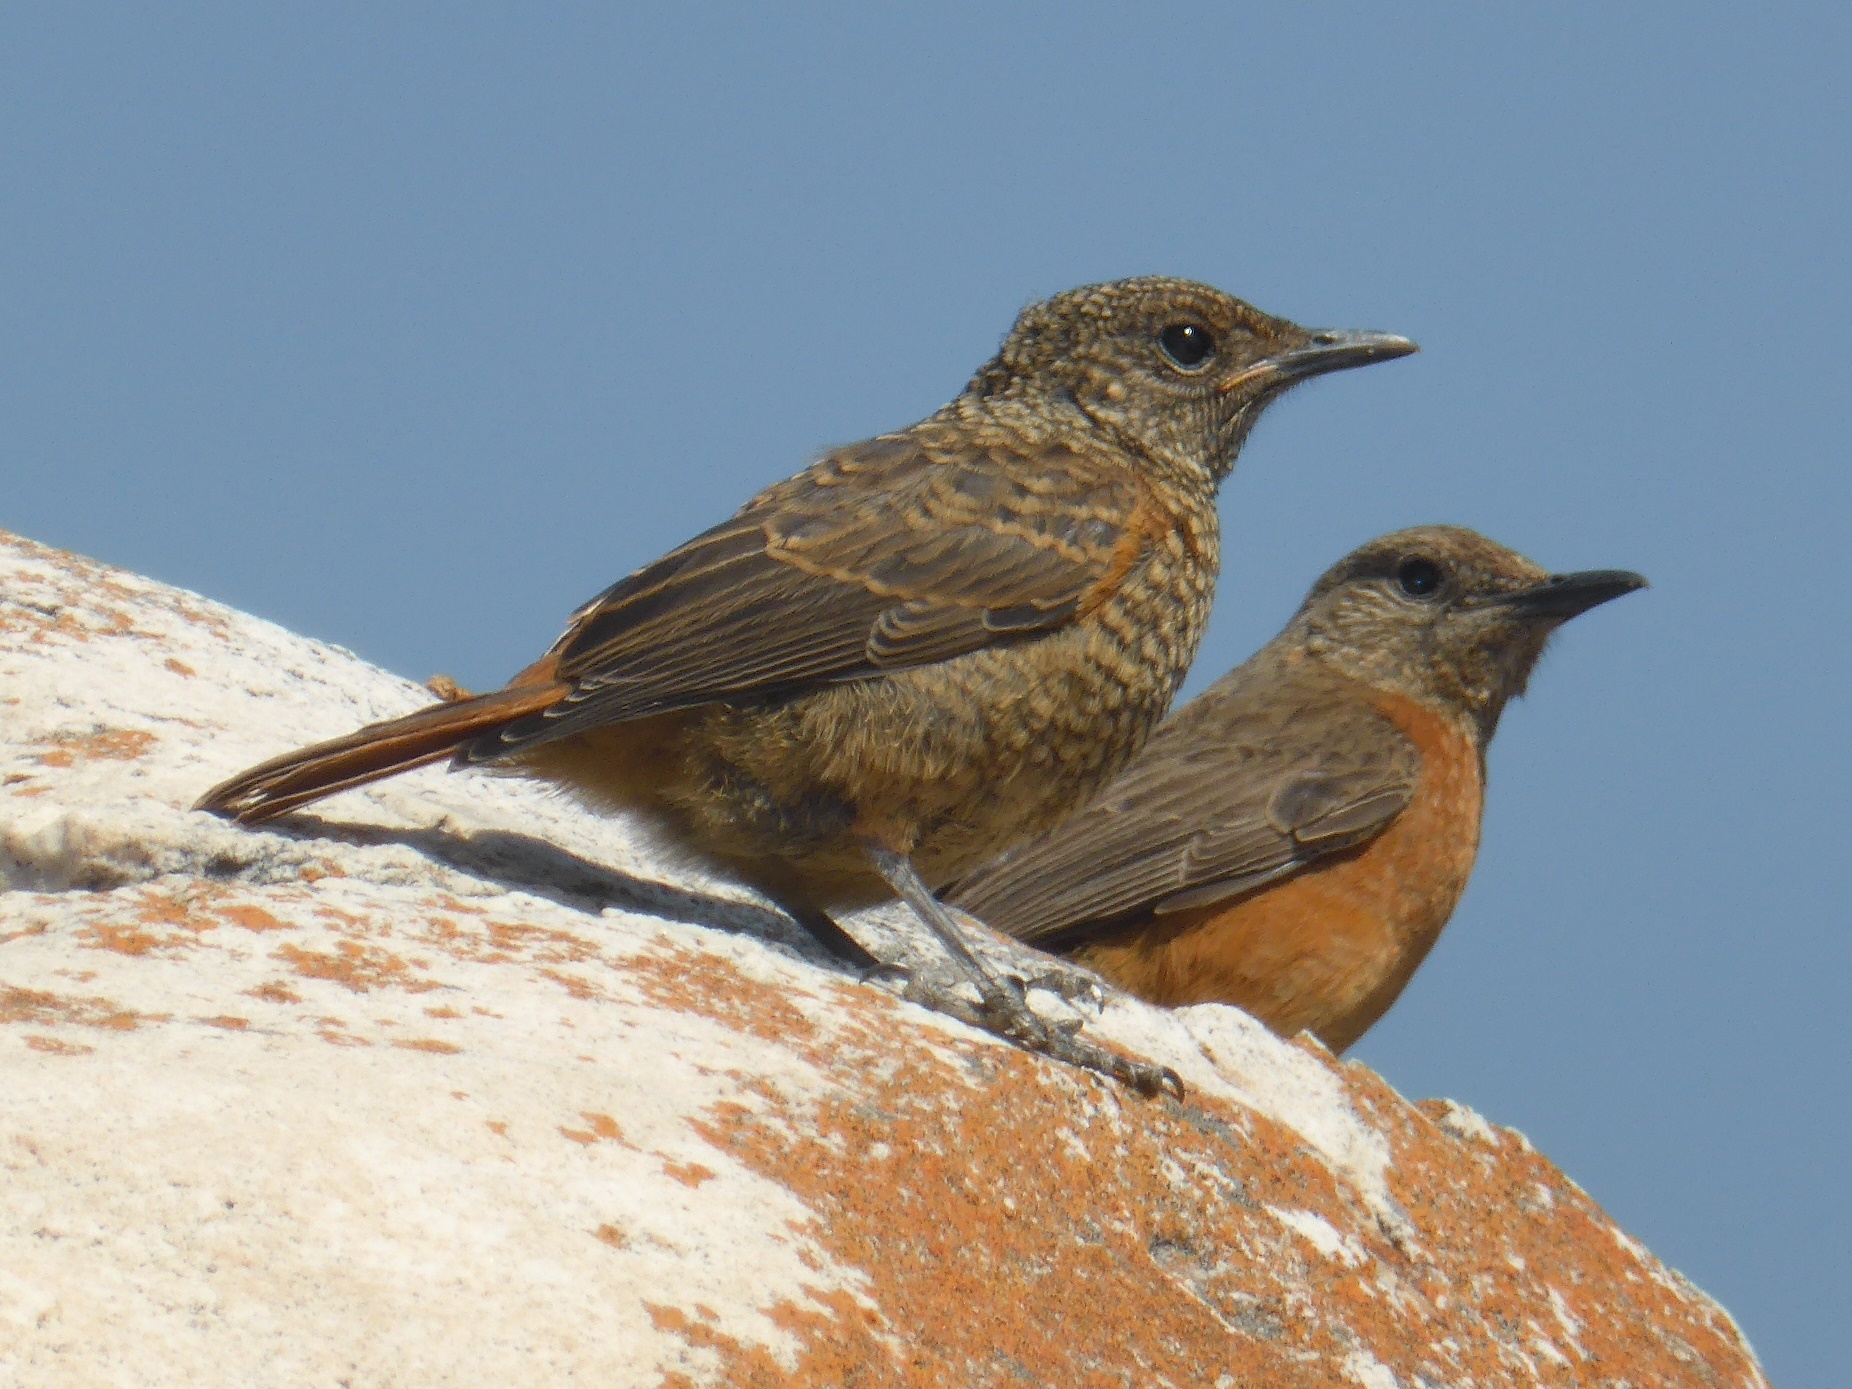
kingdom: Animalia
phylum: Chordata
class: Aves
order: Passeriformes
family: Muscicapidae
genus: Monticola
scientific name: Monticola rupestris
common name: Cape rock thrush
